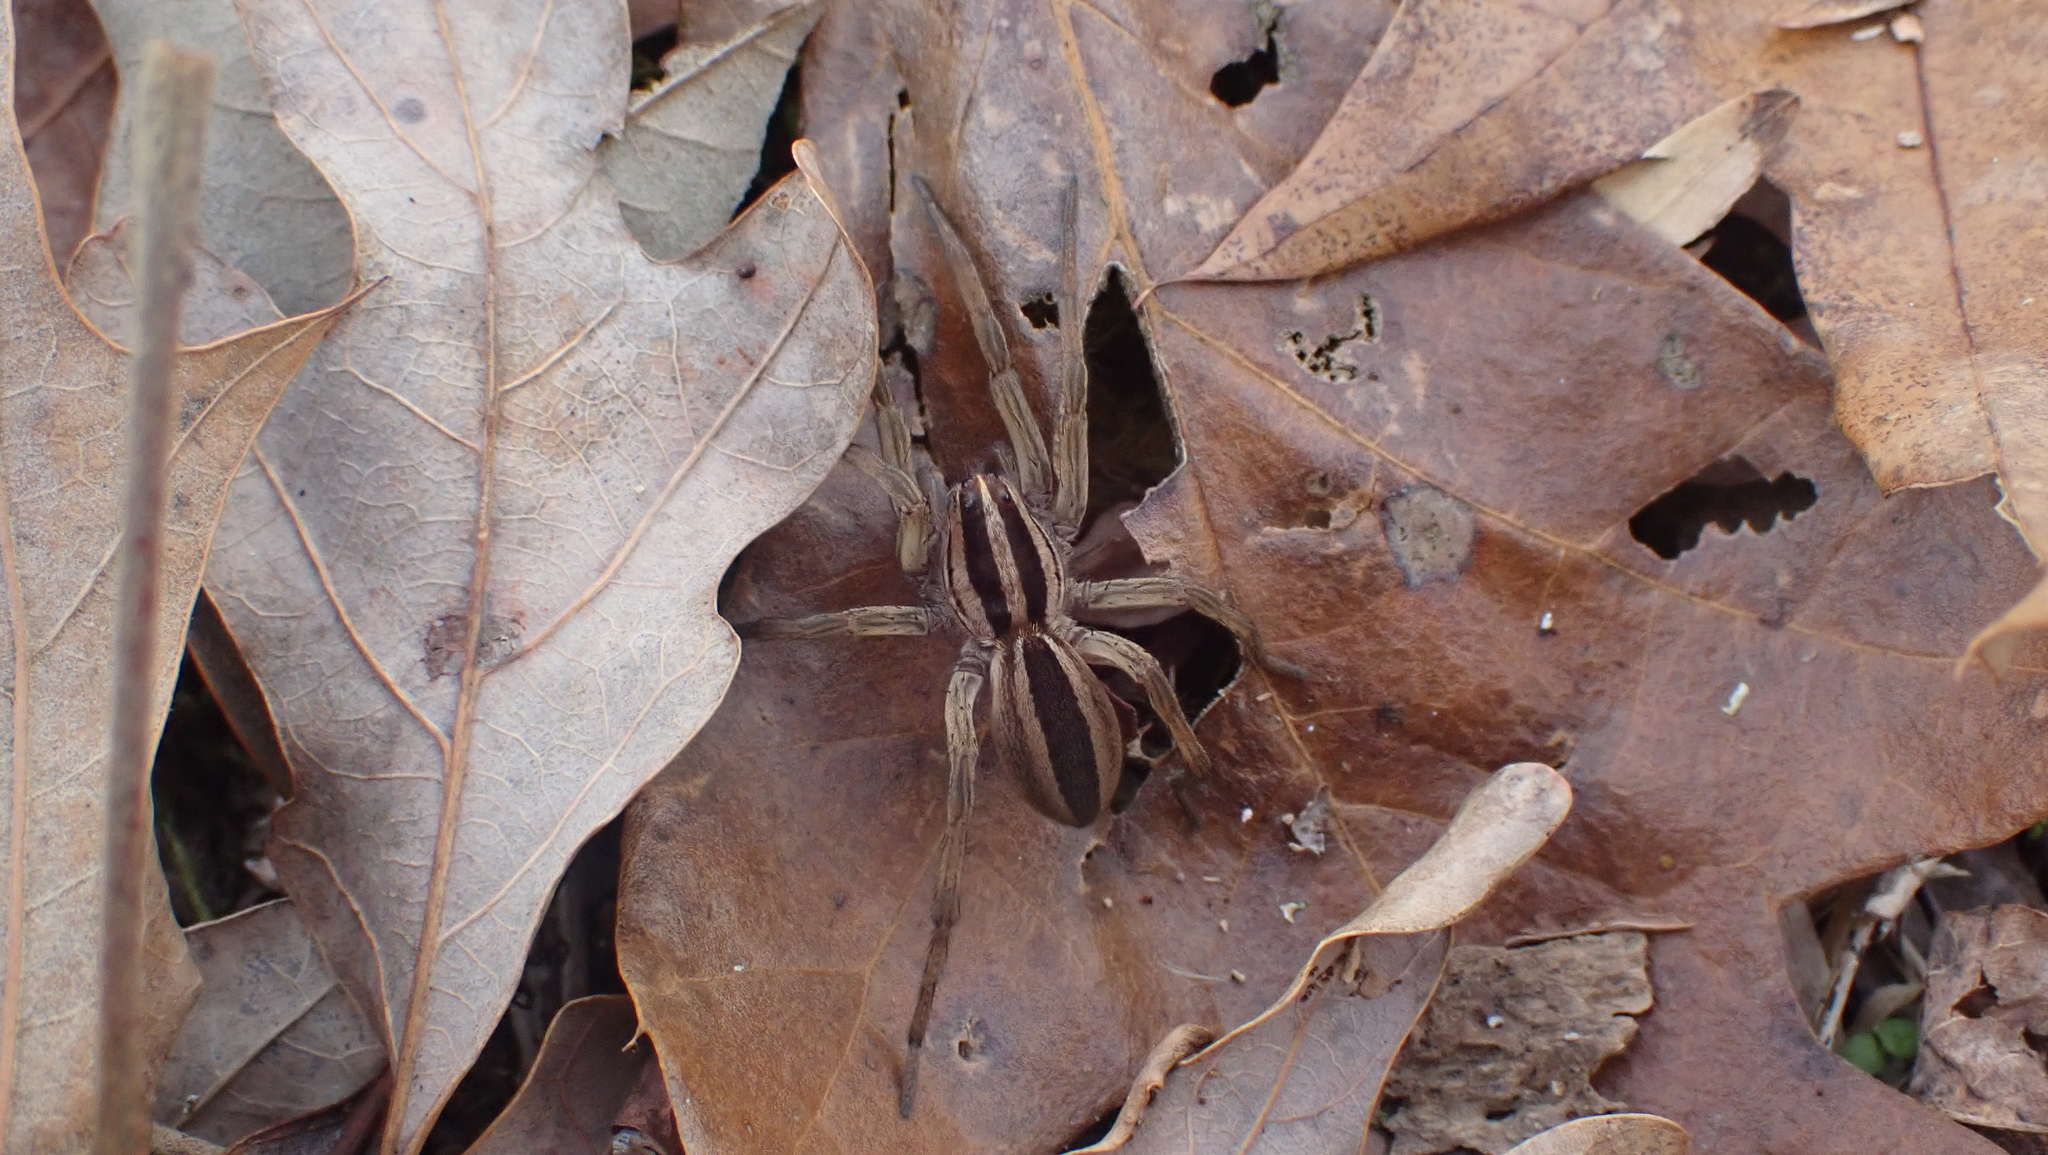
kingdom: Animalia
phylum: Arthropoda
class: Arachnida
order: Araneae
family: Lycosidae
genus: Rabidosa
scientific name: Rabidosa punctulata
